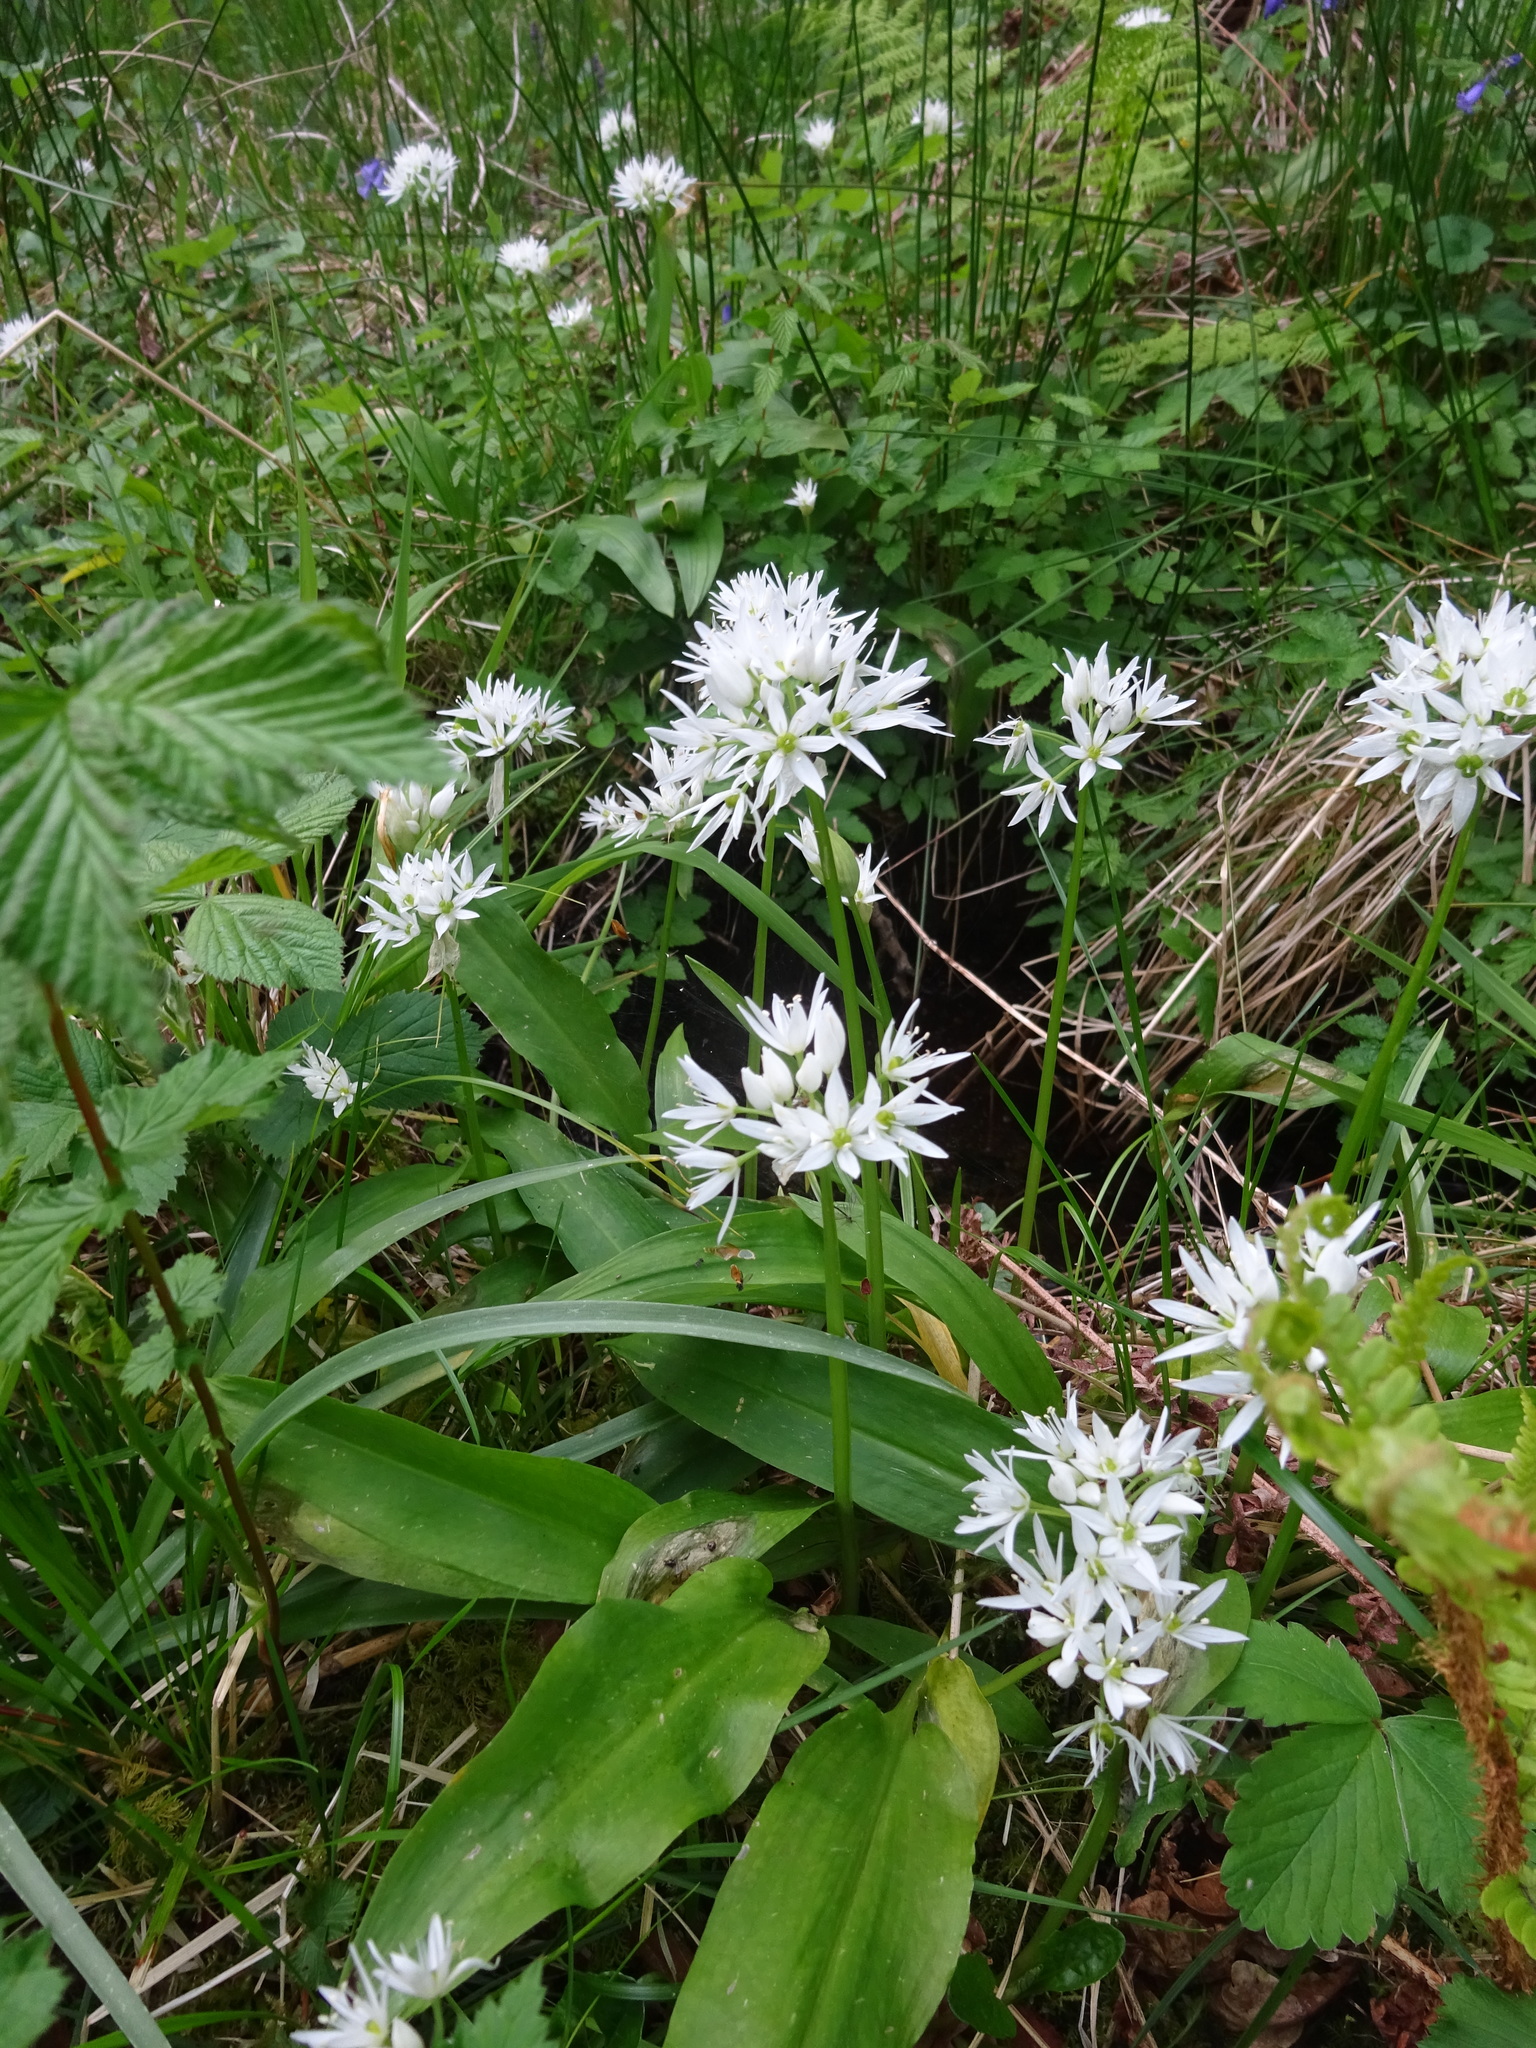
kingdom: Plantae
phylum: Tracheophyta
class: Liliopsida
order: Asparagales
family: Amaryllidaceae
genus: Allium
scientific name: Allium ursinum
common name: Ramsons
